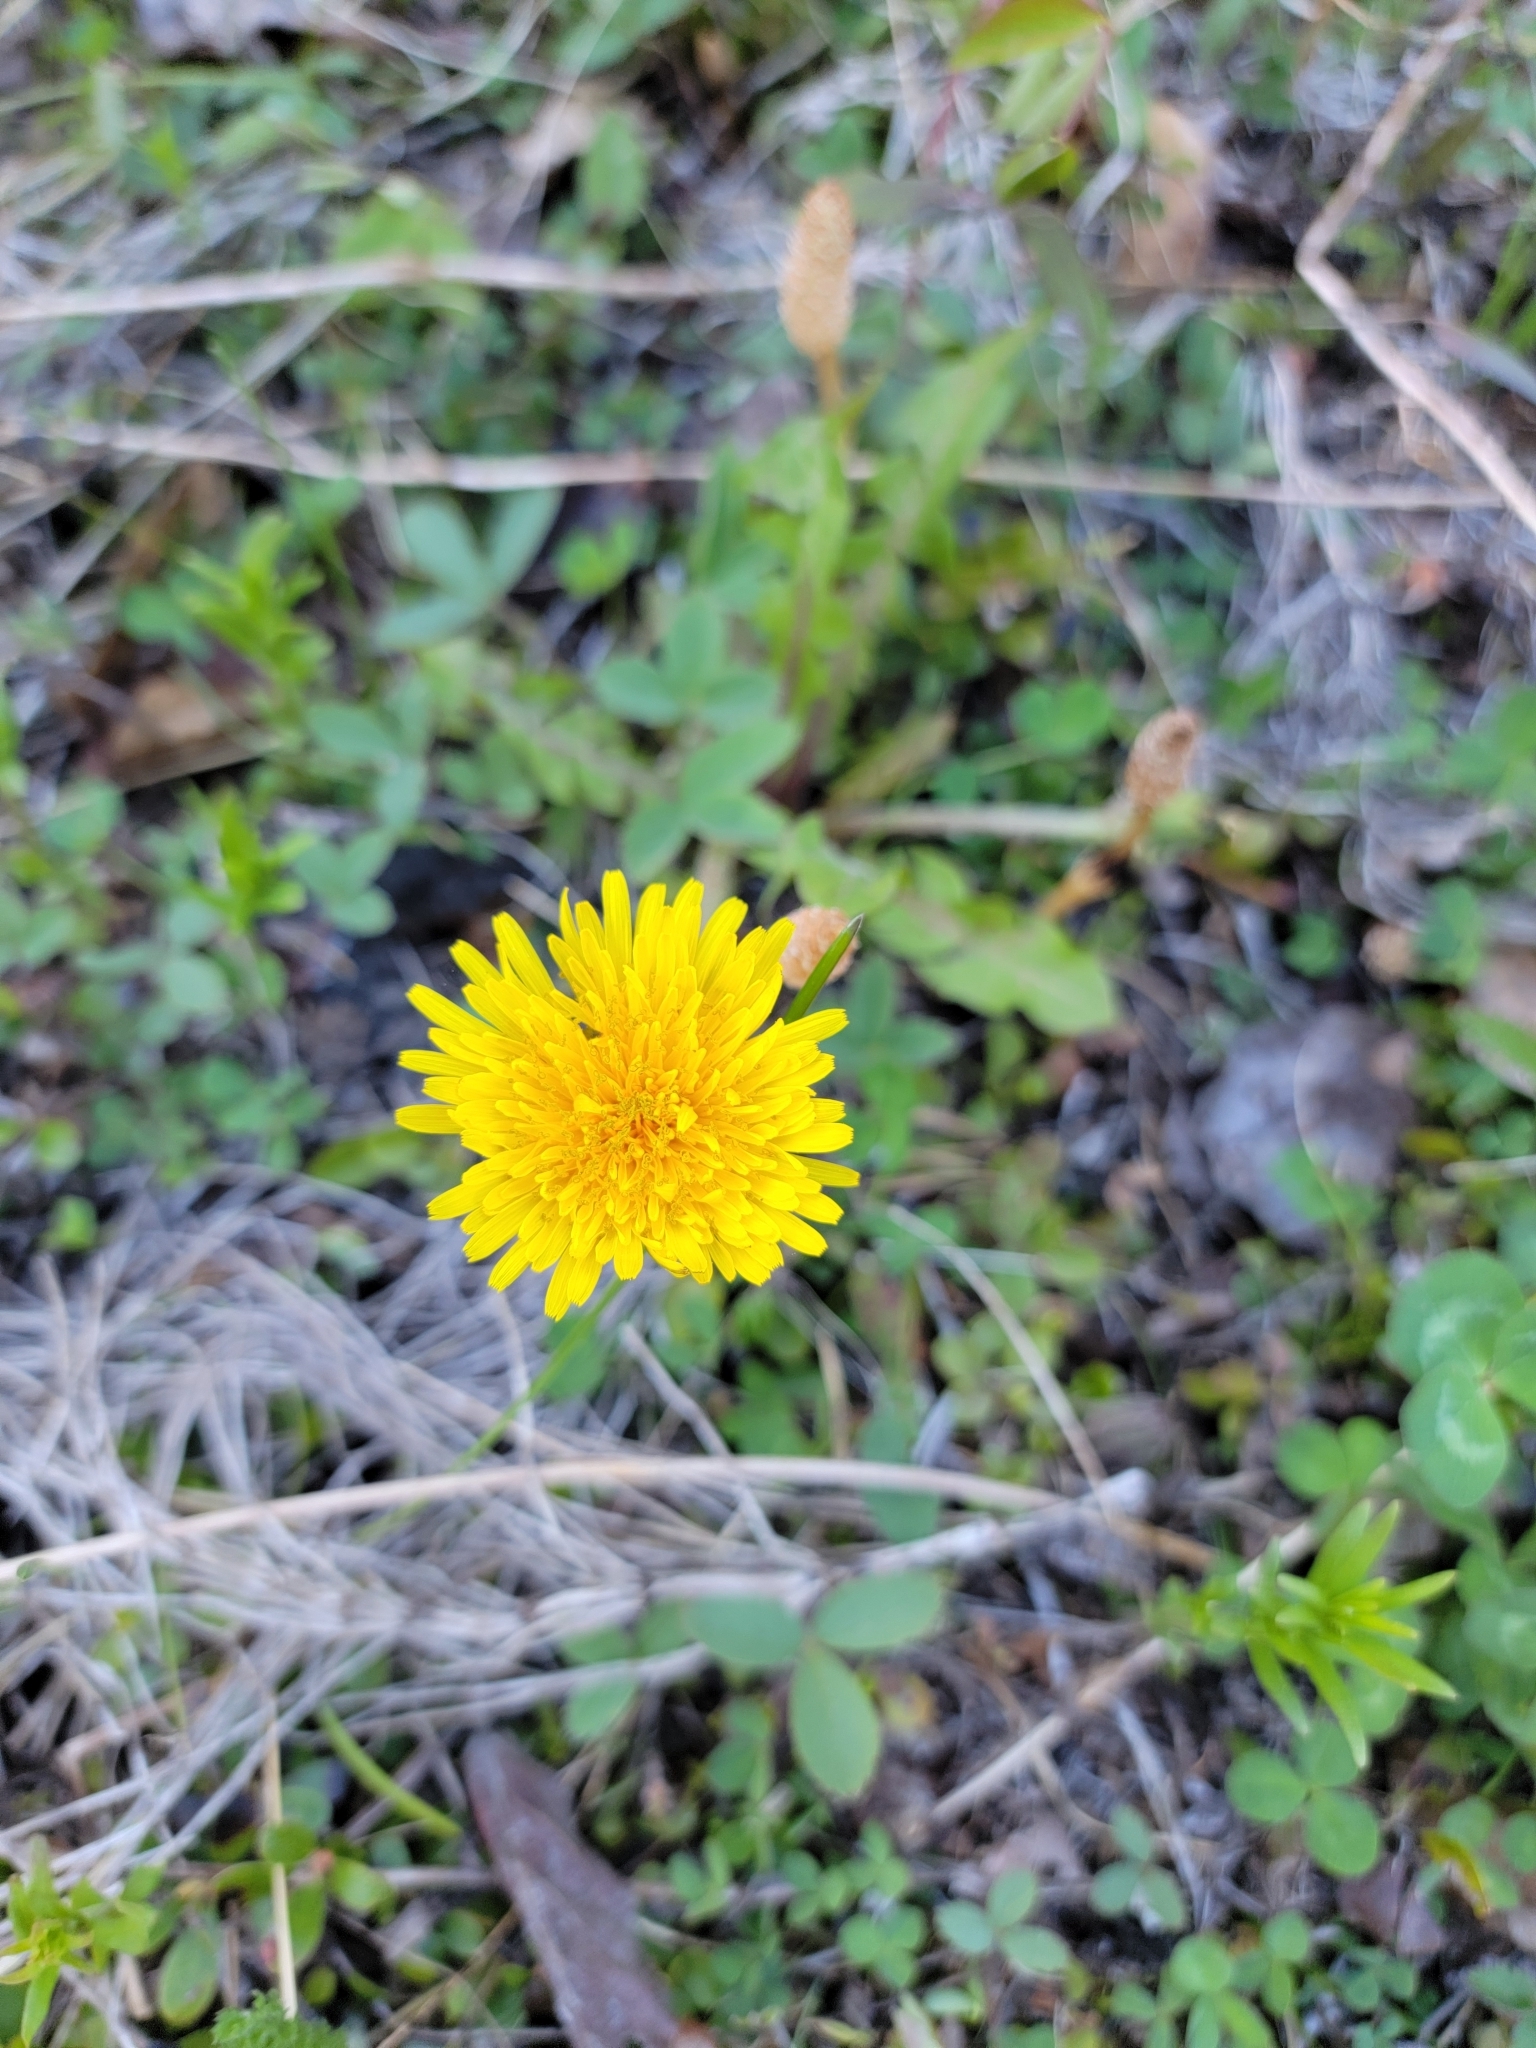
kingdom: Plantae
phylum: Tracheophyta
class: Magnoliopsida
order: Asterales
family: Asteraceae
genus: Taraxacum
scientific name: Taraxacum officinale
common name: Common dandelion
